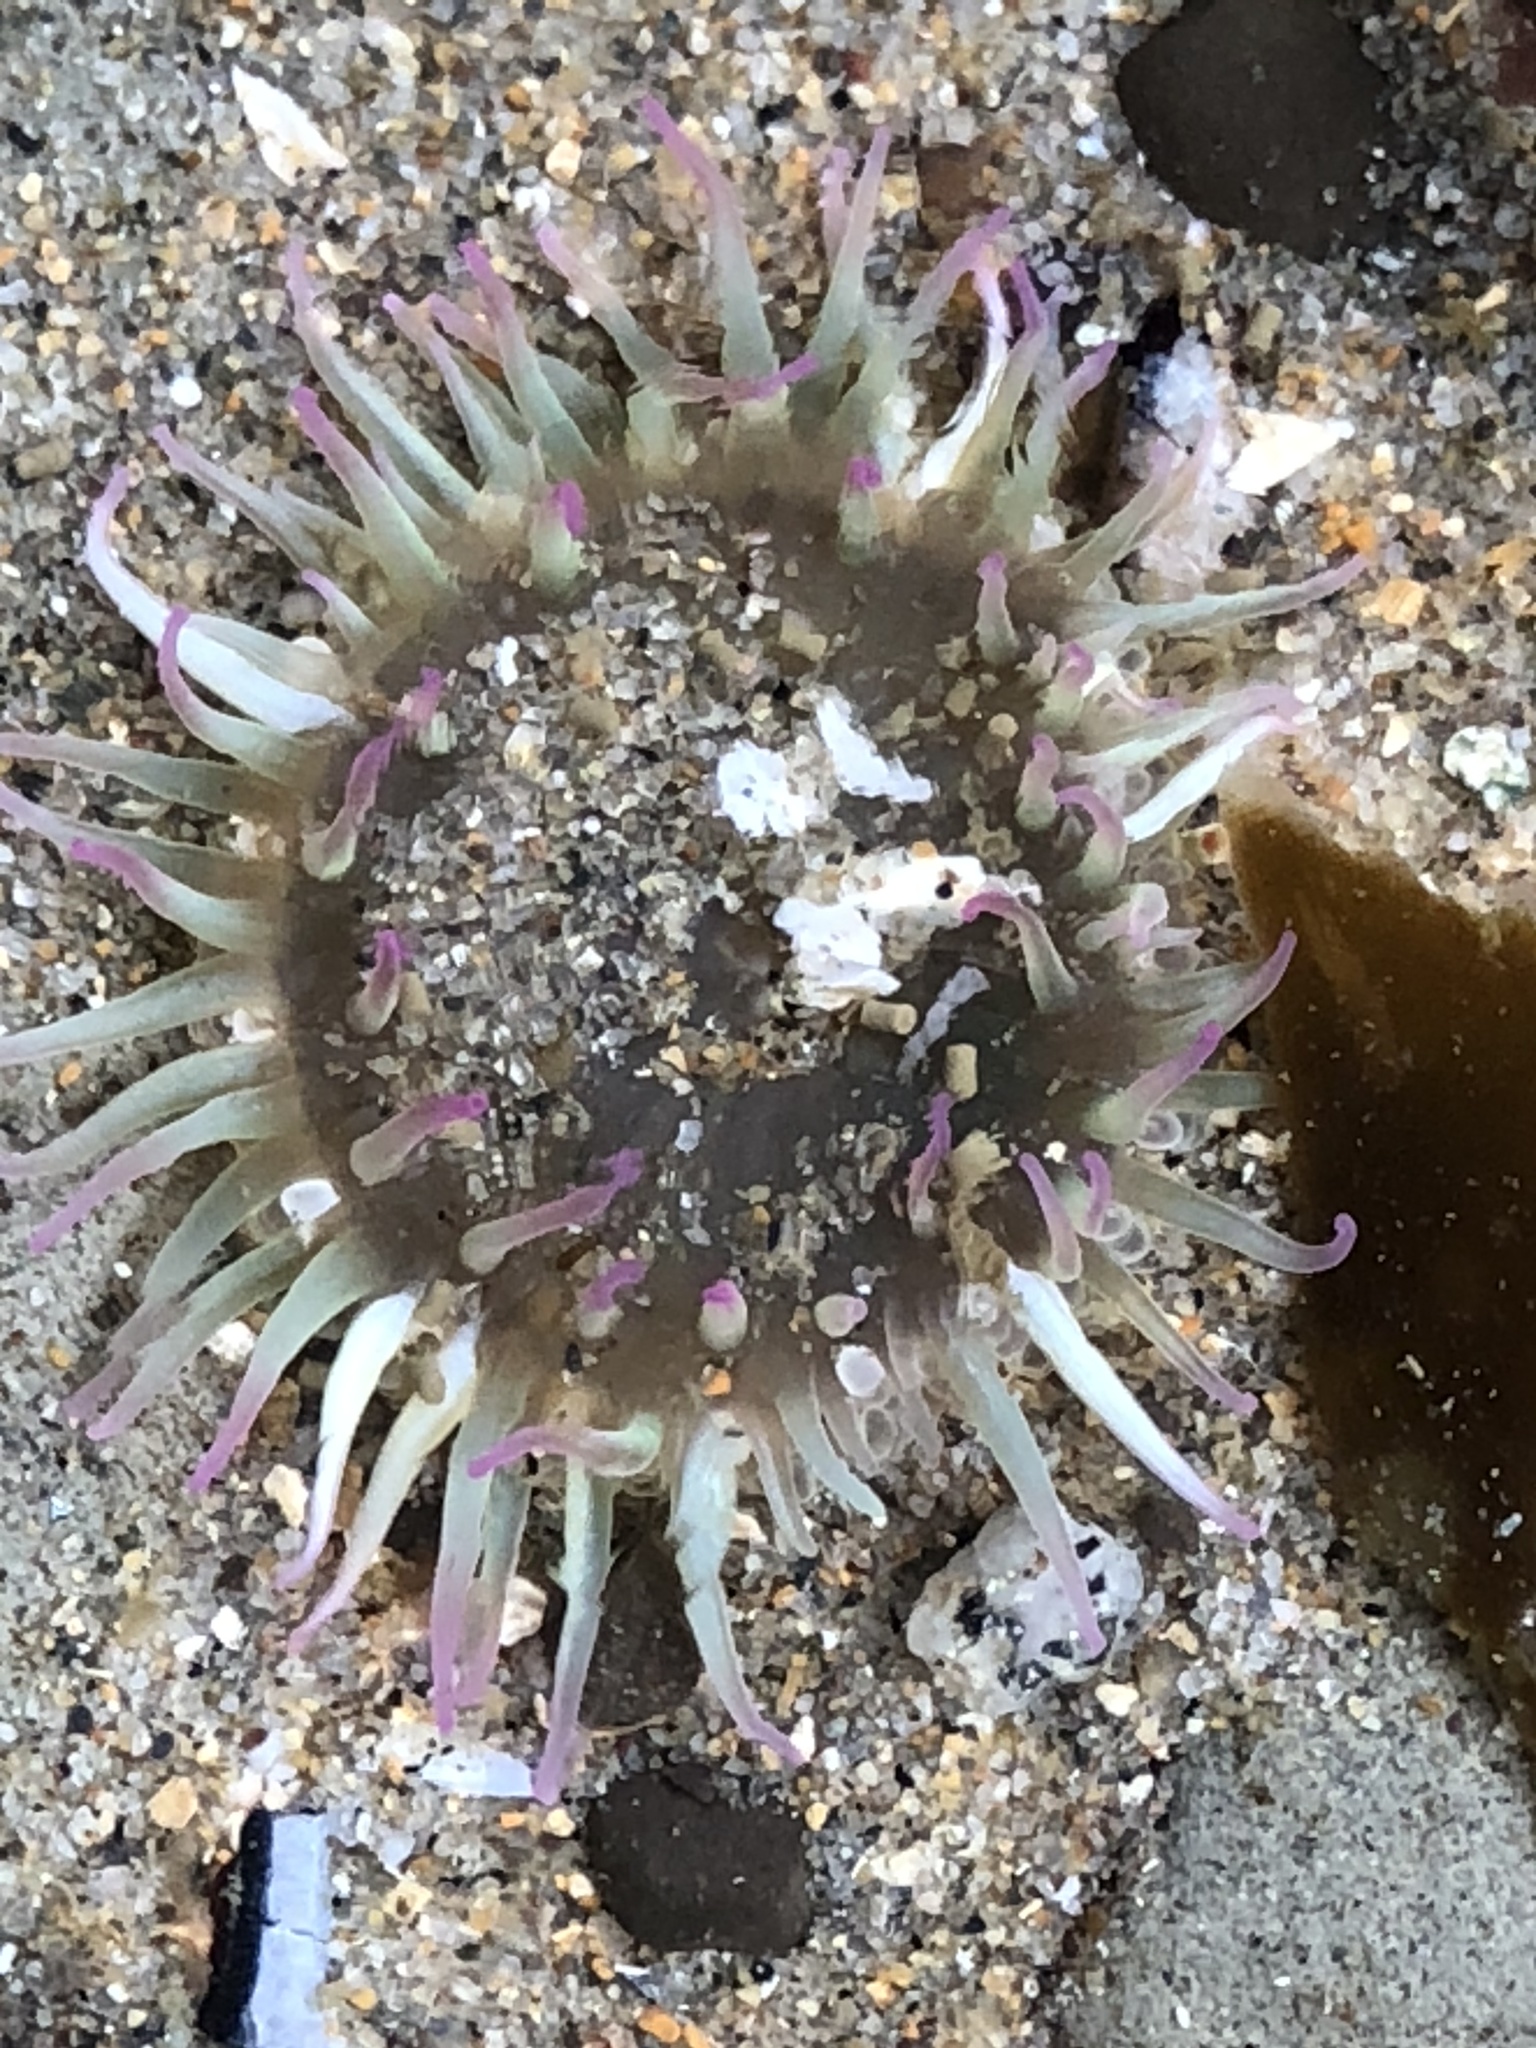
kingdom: Animalia
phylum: Cnidaria
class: Anthozoa
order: Actiniaria
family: Actiniidae
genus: Anthopleura
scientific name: Anthopleura elegantissima
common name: Clonal anemone
